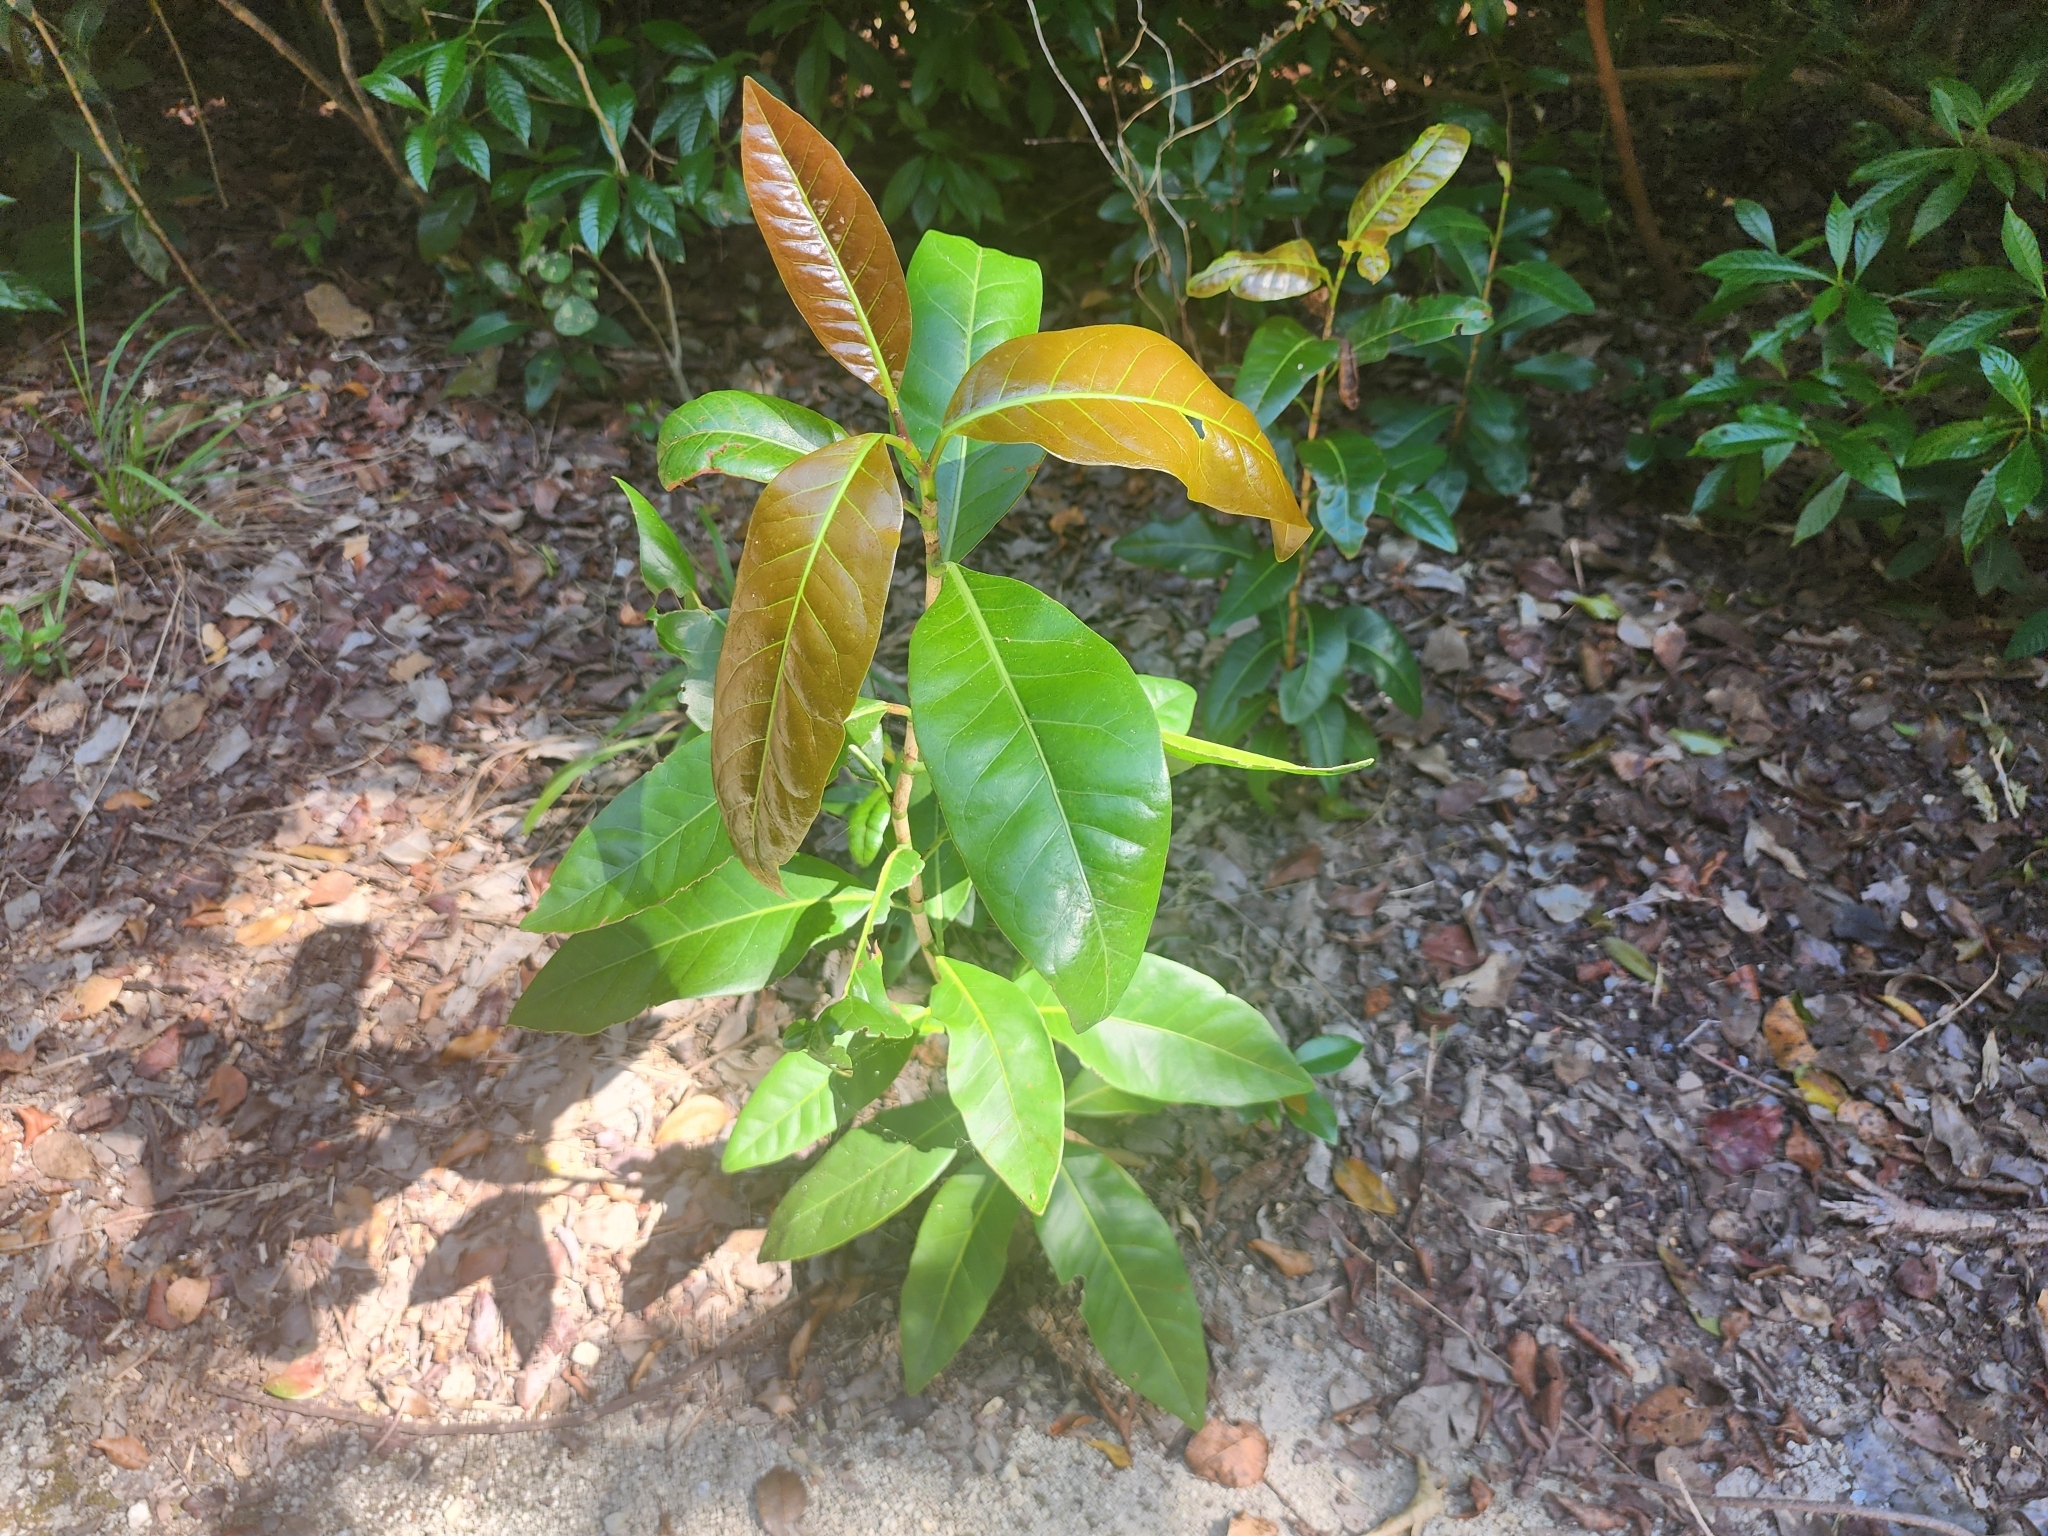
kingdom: Plantae
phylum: Tracheophyta
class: Magnoliopsida
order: Caryophyllales
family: Polygonaceae
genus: Coccoloba
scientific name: Coccoloba diversifolia
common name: Pigeon-plum
